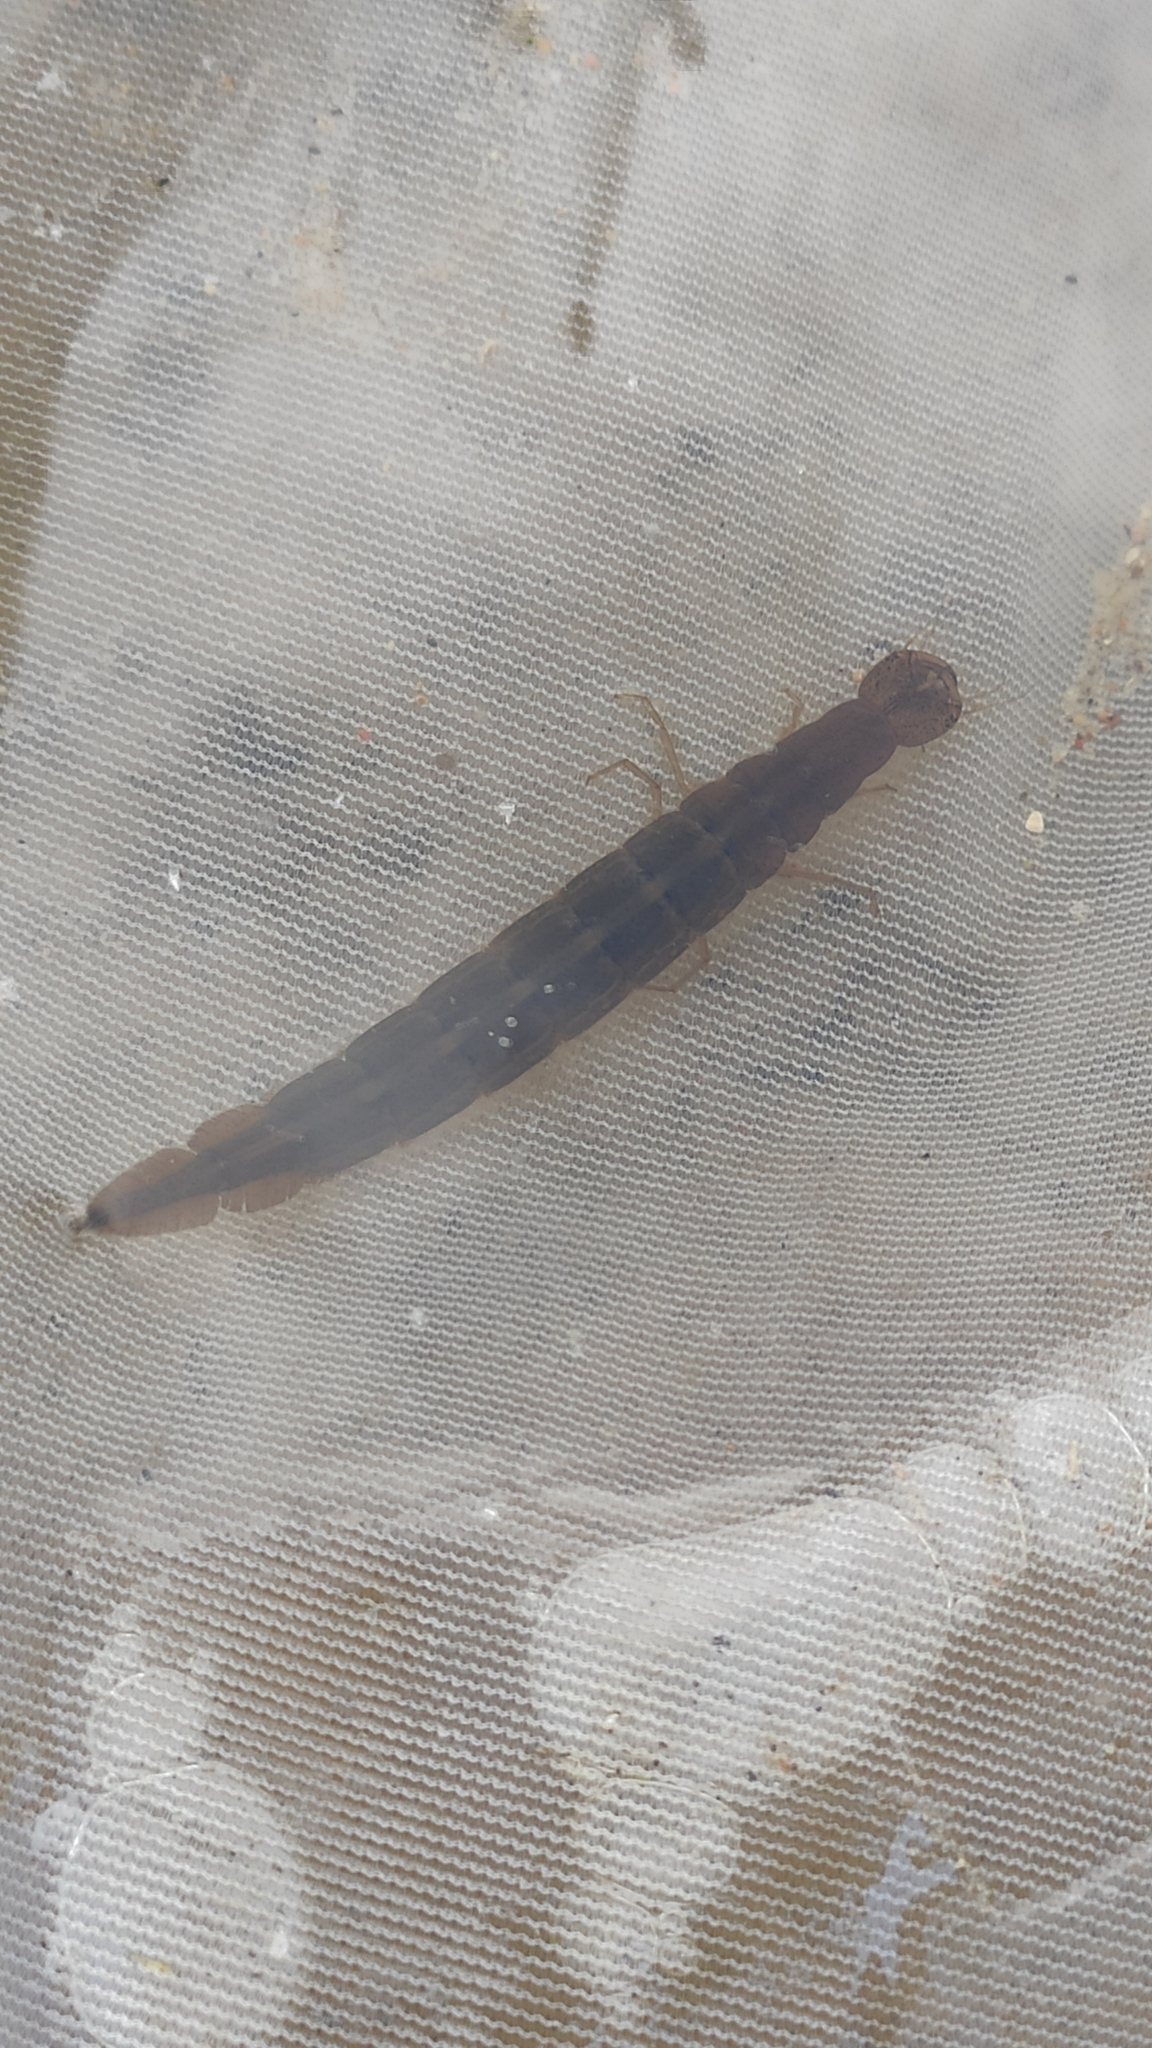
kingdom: Animalia
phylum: Arthropoda
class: Insecta
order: Coleoptera
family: Dytiscidae
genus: Cybister
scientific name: Cybister lateralimarginalis
